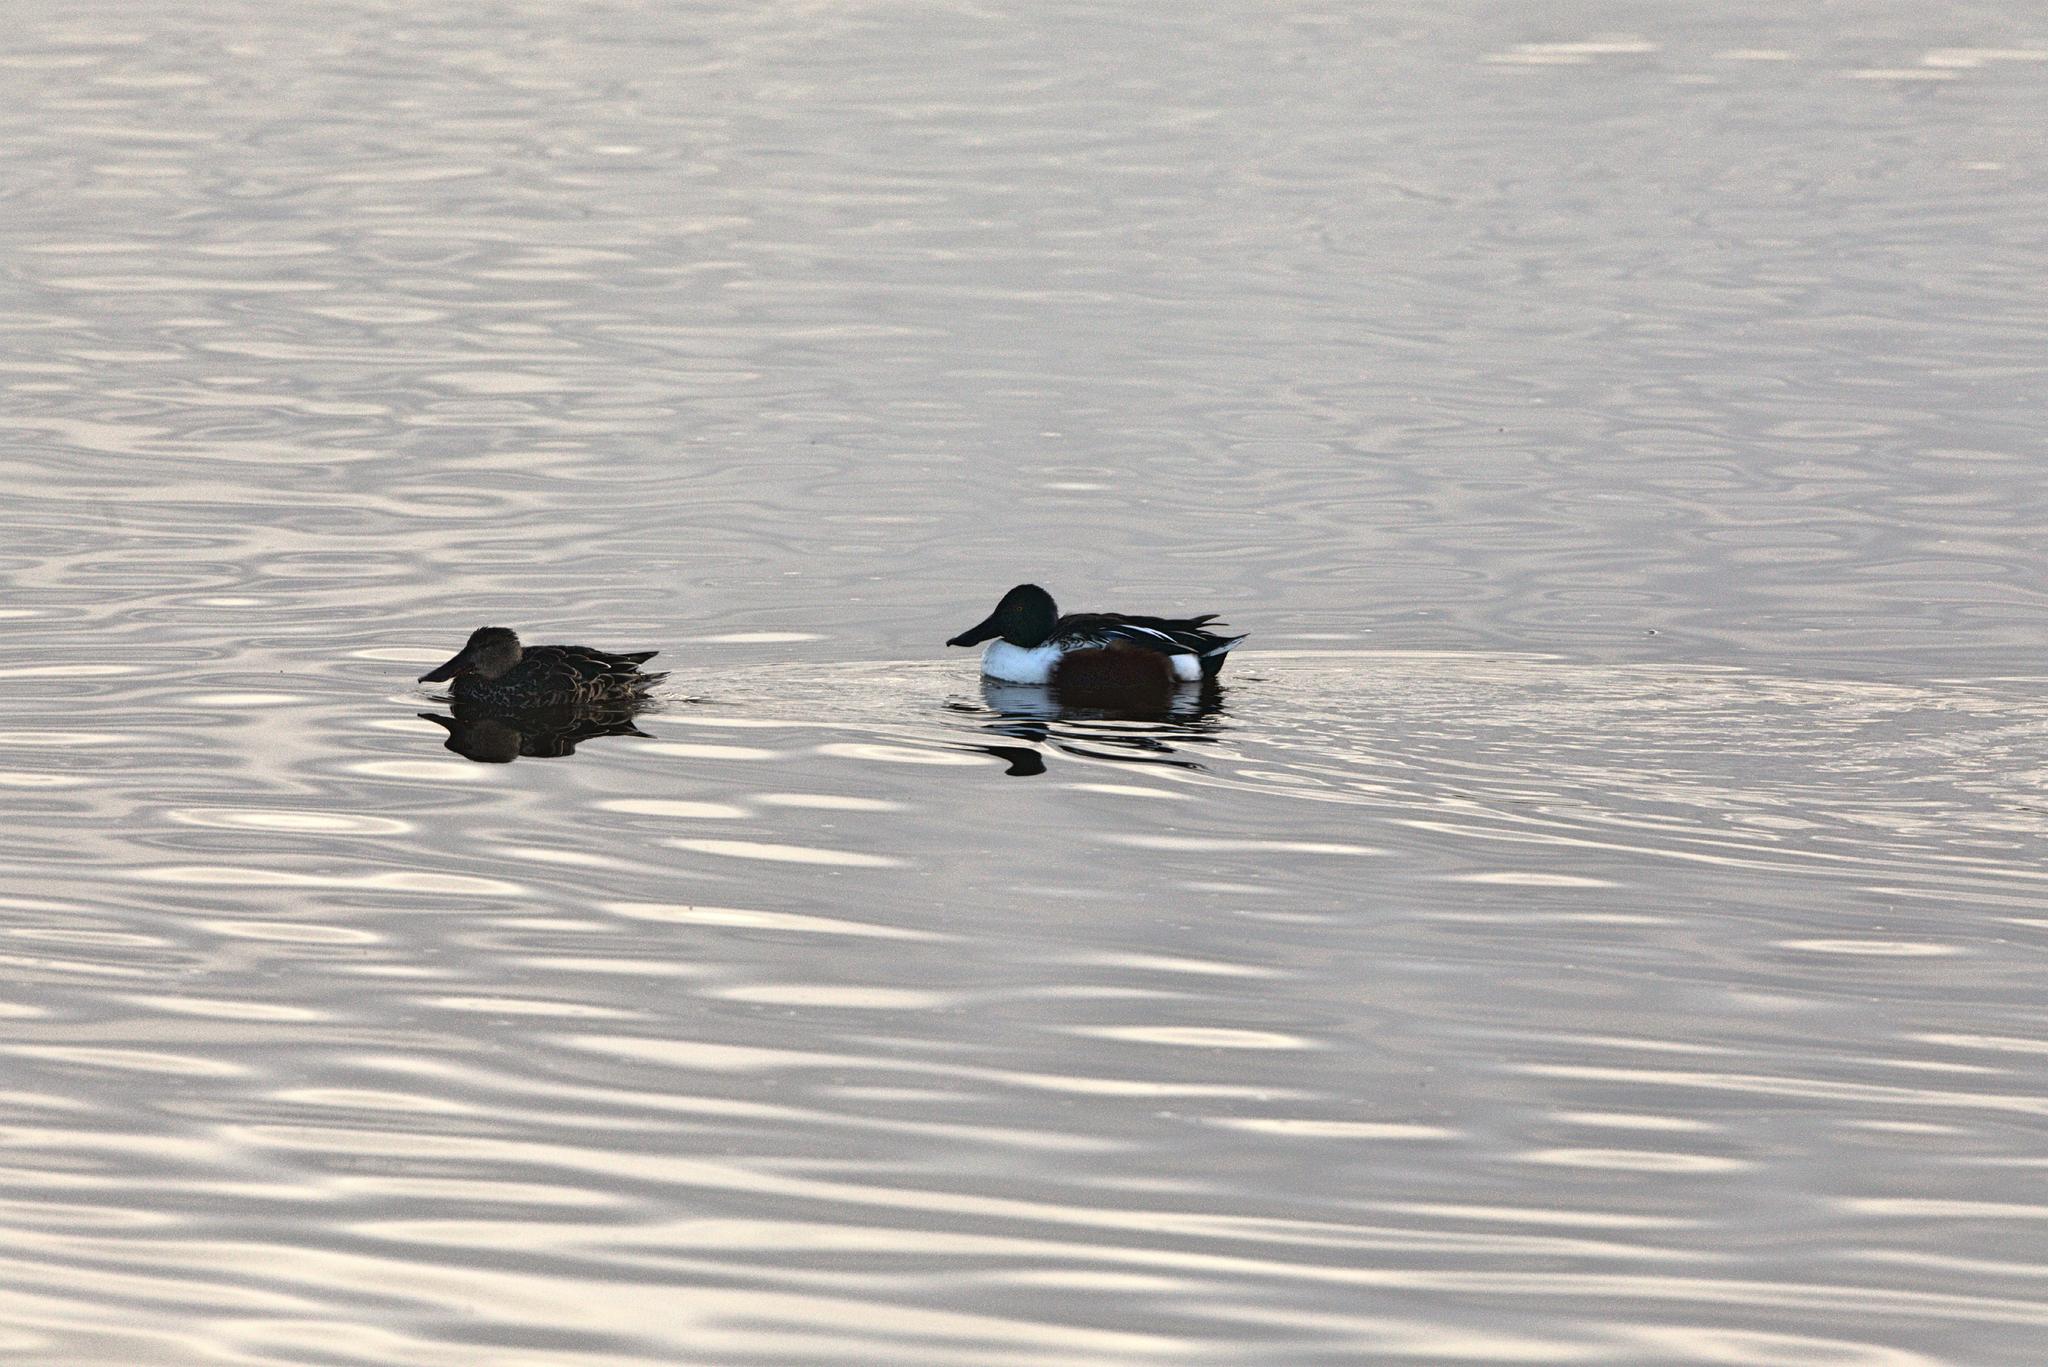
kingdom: Animalia
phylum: Chordata
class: Aves
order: Anseriformes
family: Anatidae
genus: Spatula
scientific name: Spatula clypeata
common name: Northern shoveler
